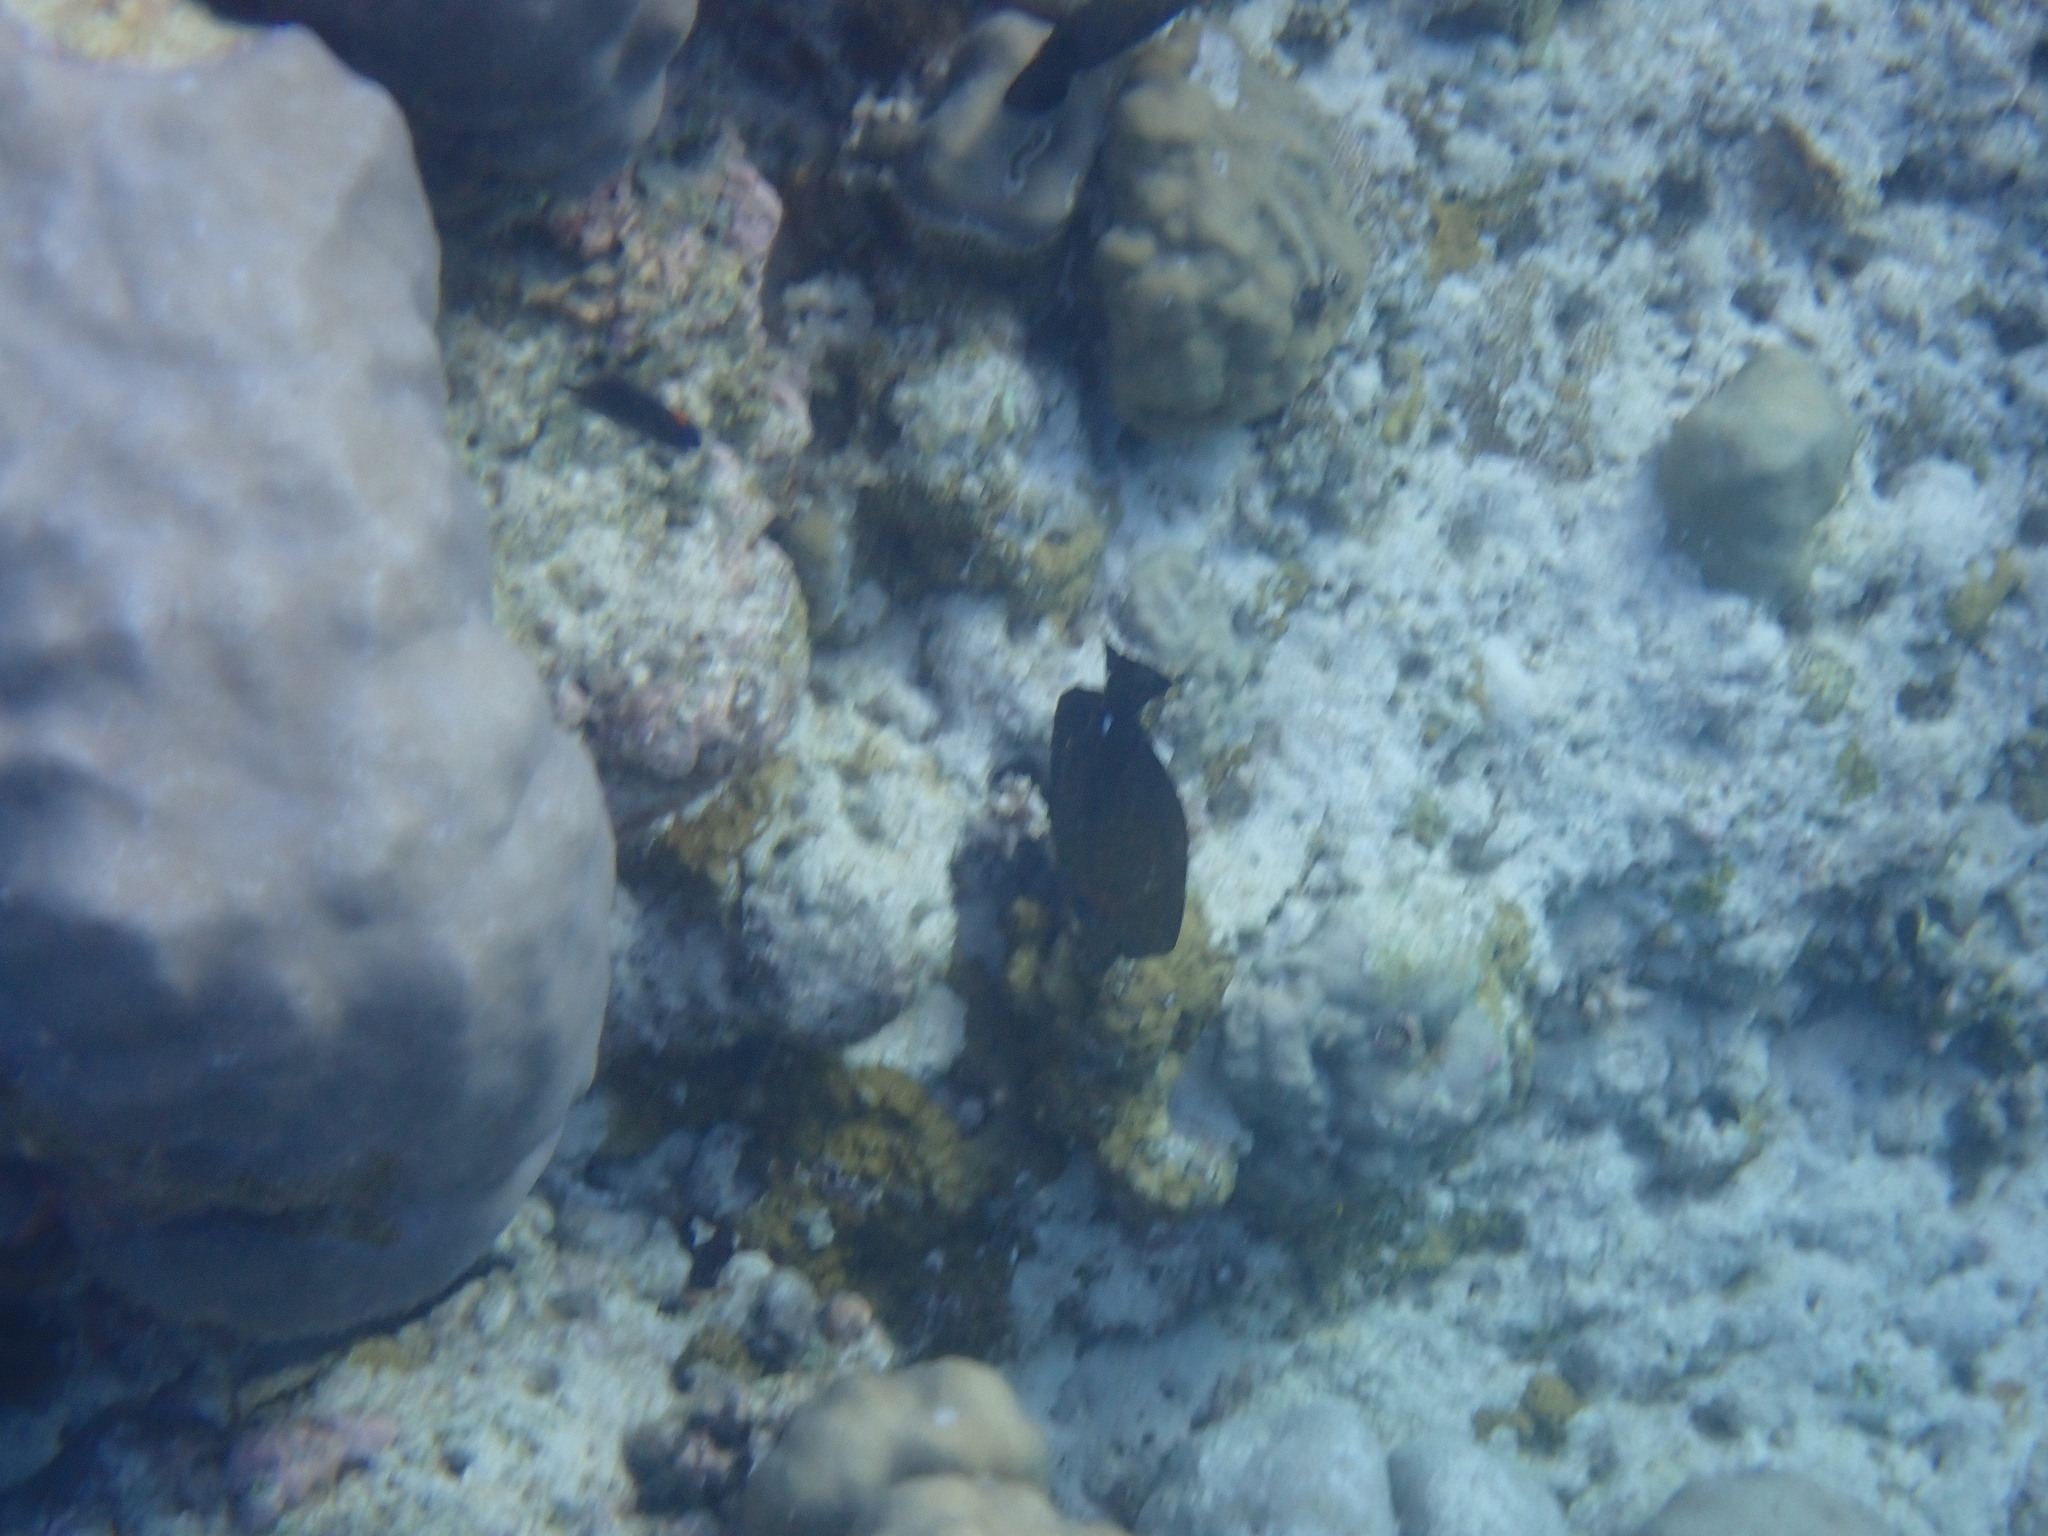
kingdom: Animalia
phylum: Chordata
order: Perciformes
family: Acanthuridae
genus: Zebrasoma
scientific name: Zebrasoma scopas
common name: Twotone tang
